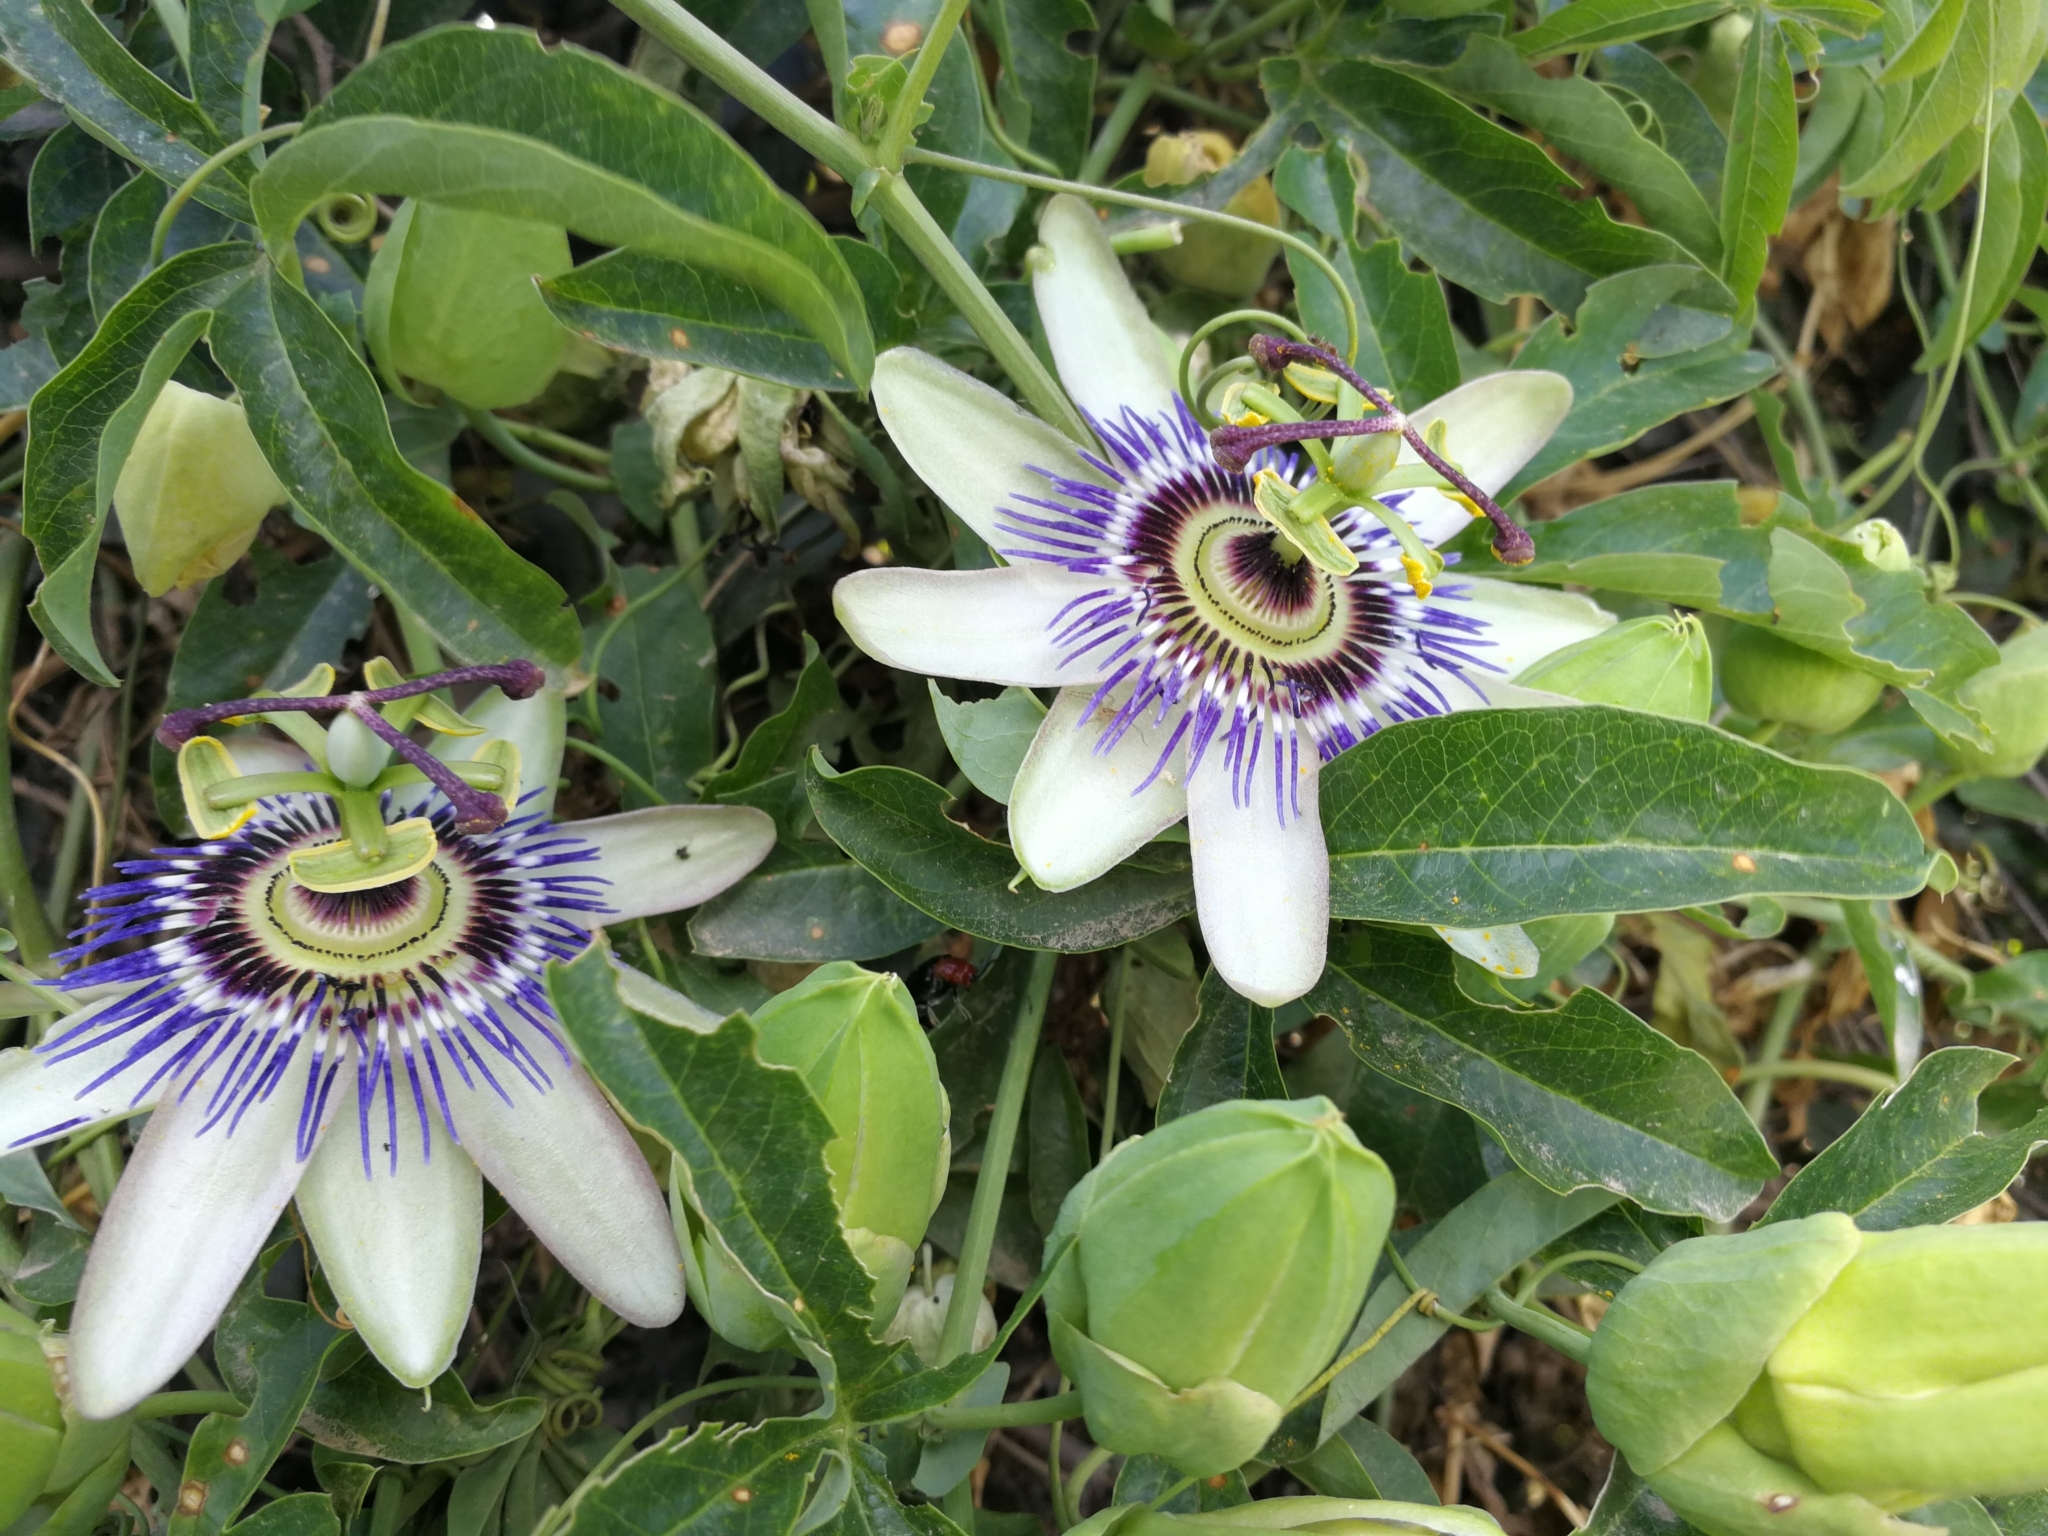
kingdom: Plantae
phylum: Tracheophyta
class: Magnoliopsida
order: Malpighiales
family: Passifloraceae
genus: Passiflora
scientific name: Passiflora caerulea
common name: Blue passionflower
